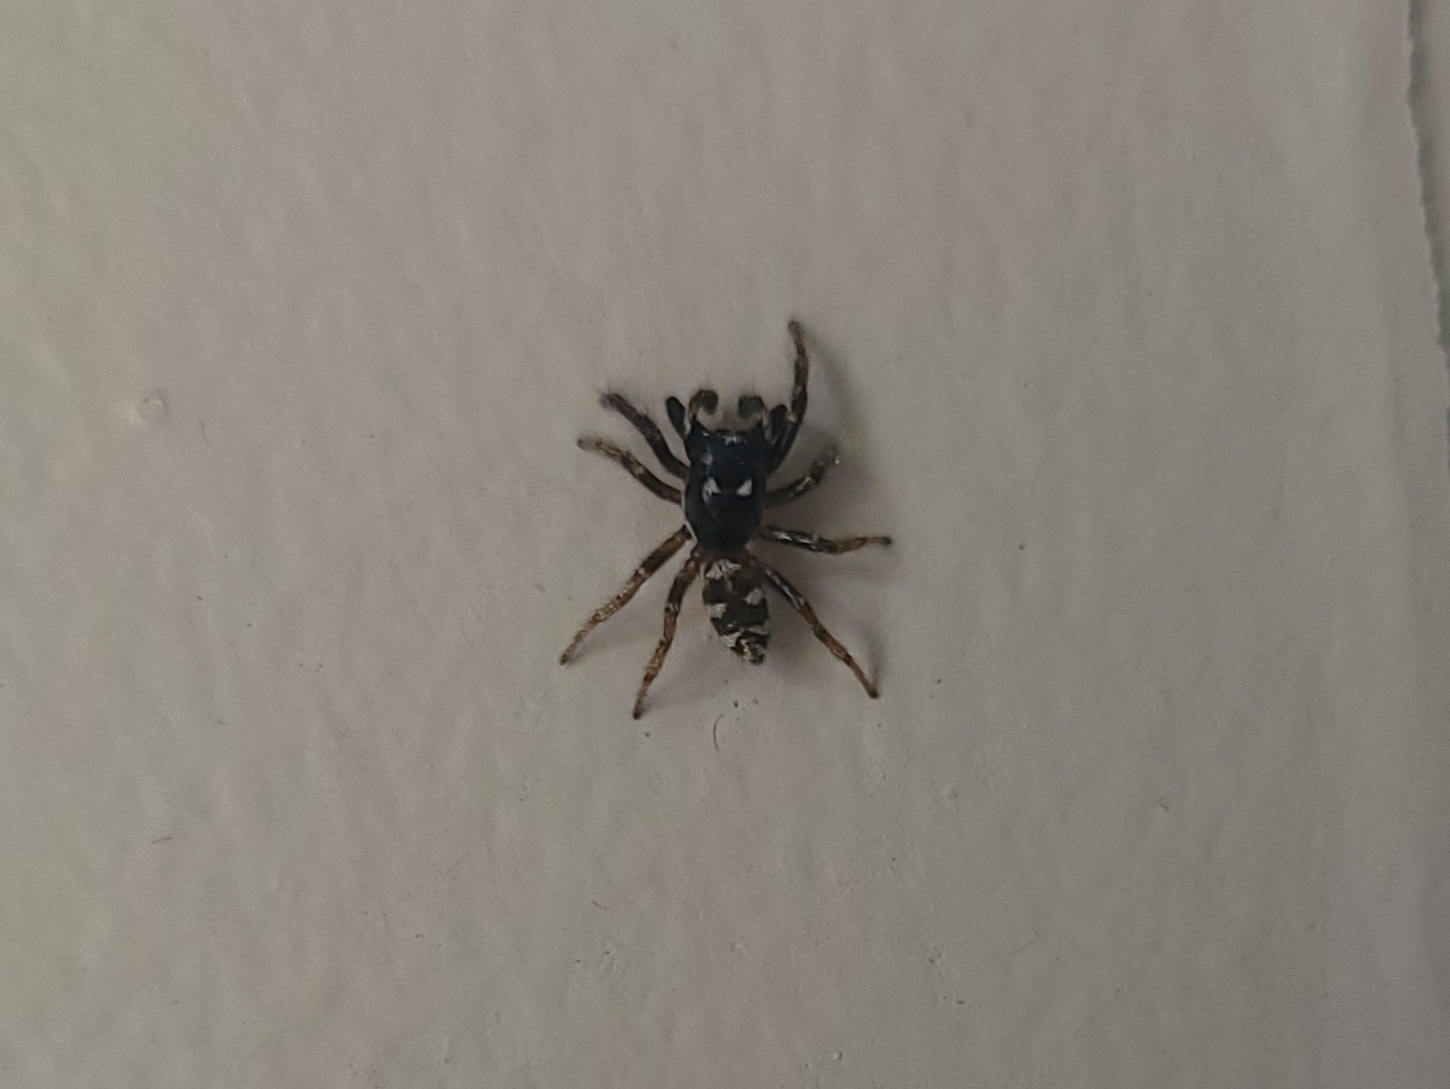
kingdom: Animalia
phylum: Arthropoda
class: Arachnida
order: Araneae
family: Salticidae
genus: Salticus
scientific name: Salticus scenicus
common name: Zebra jumper
